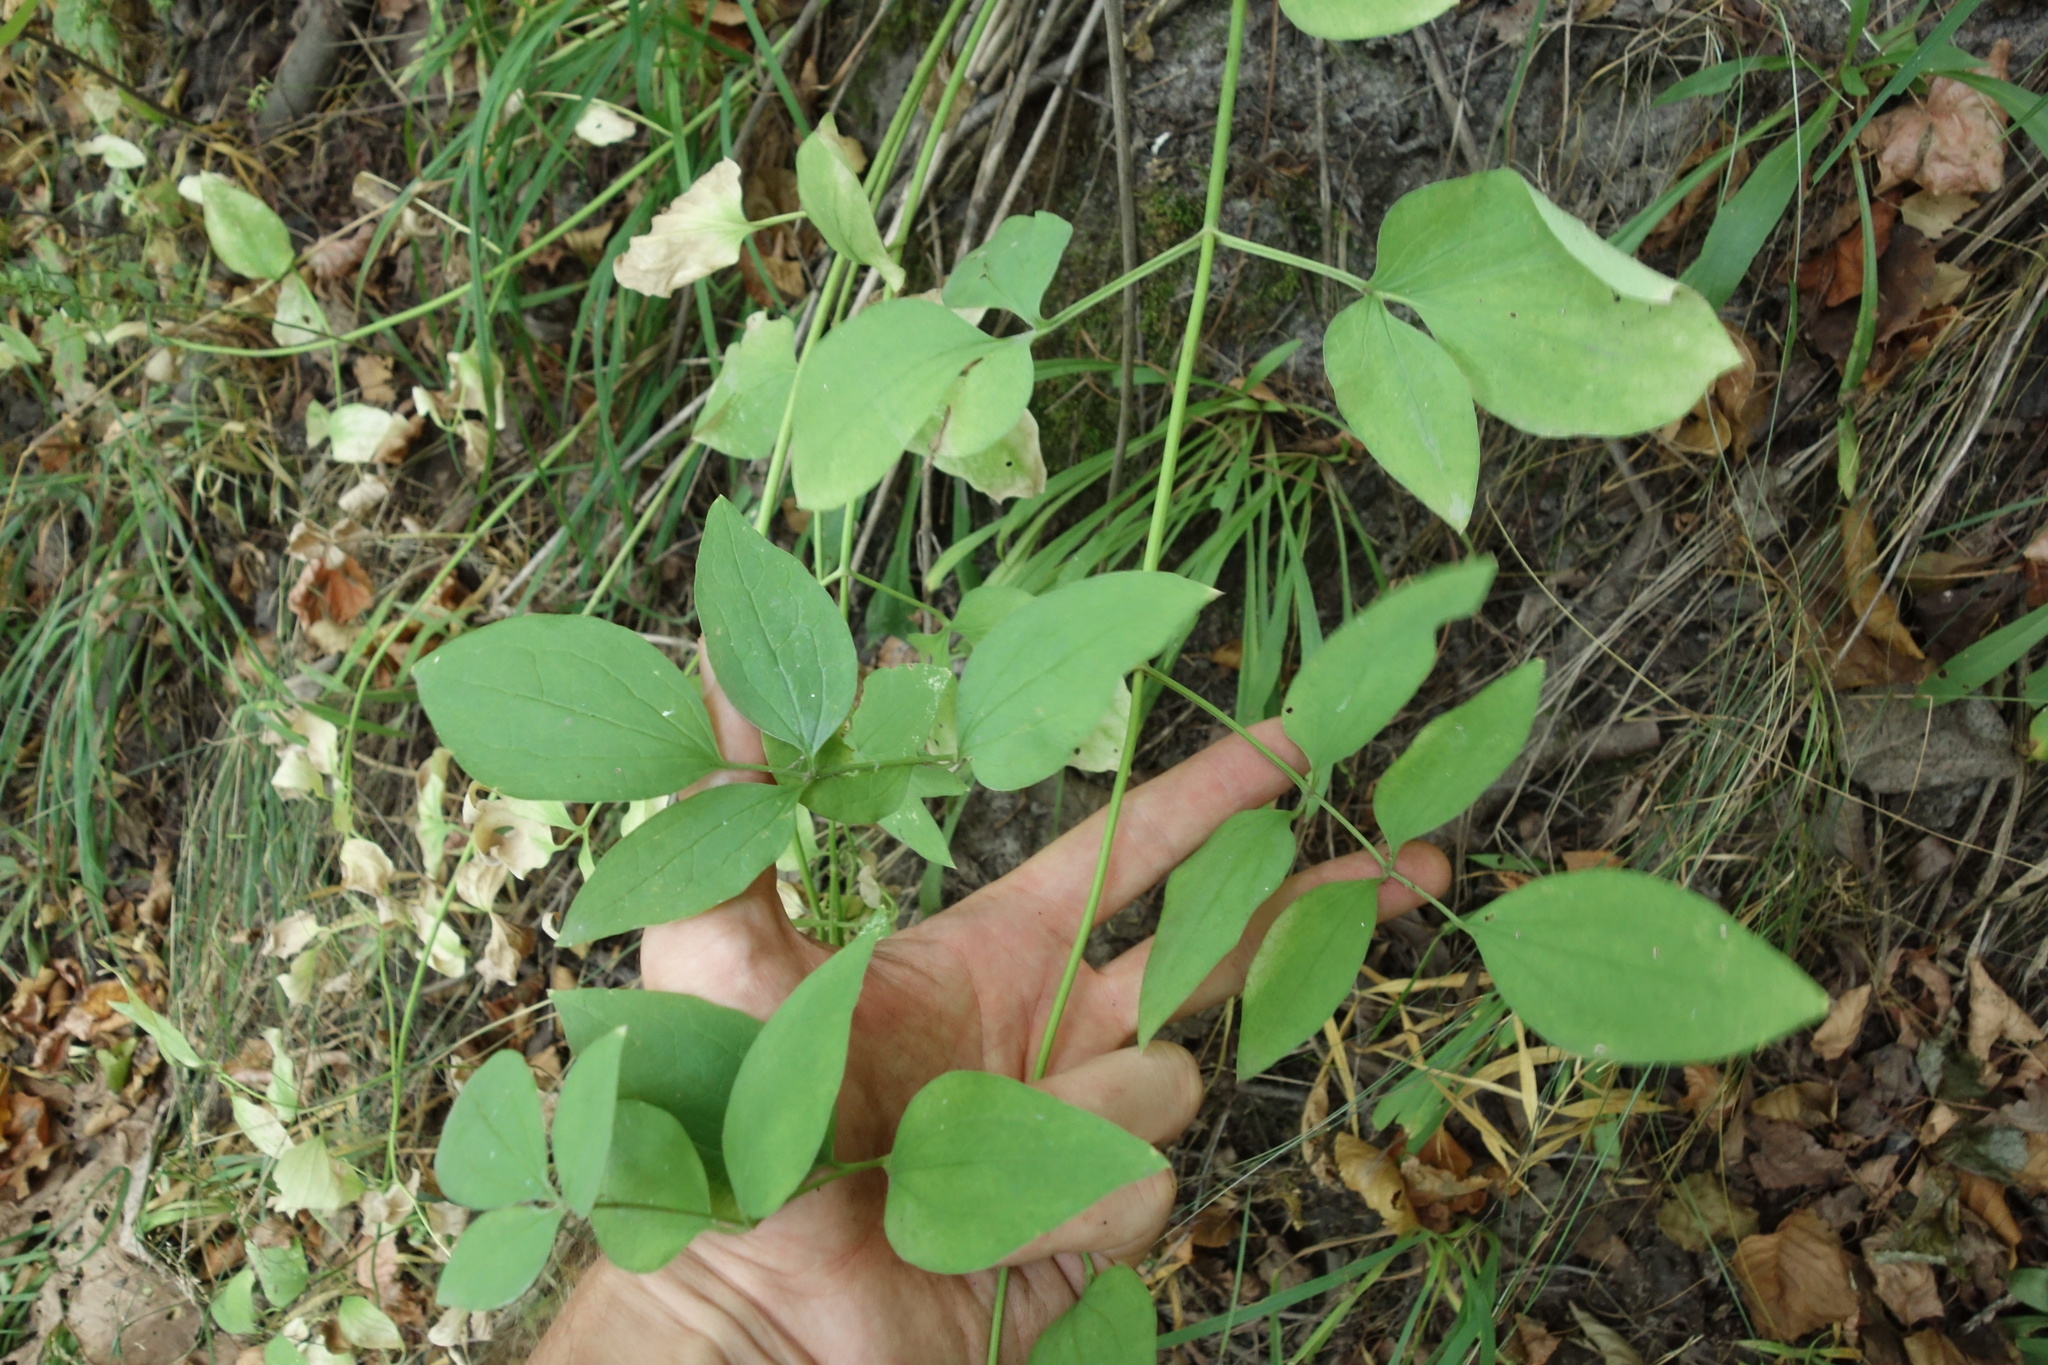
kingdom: Plantae
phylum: Tracheophyta
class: Magnoliopsida
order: Ranunculales
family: Ranunculaceae
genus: Clematis
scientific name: Clematis recta
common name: Ground clematis
